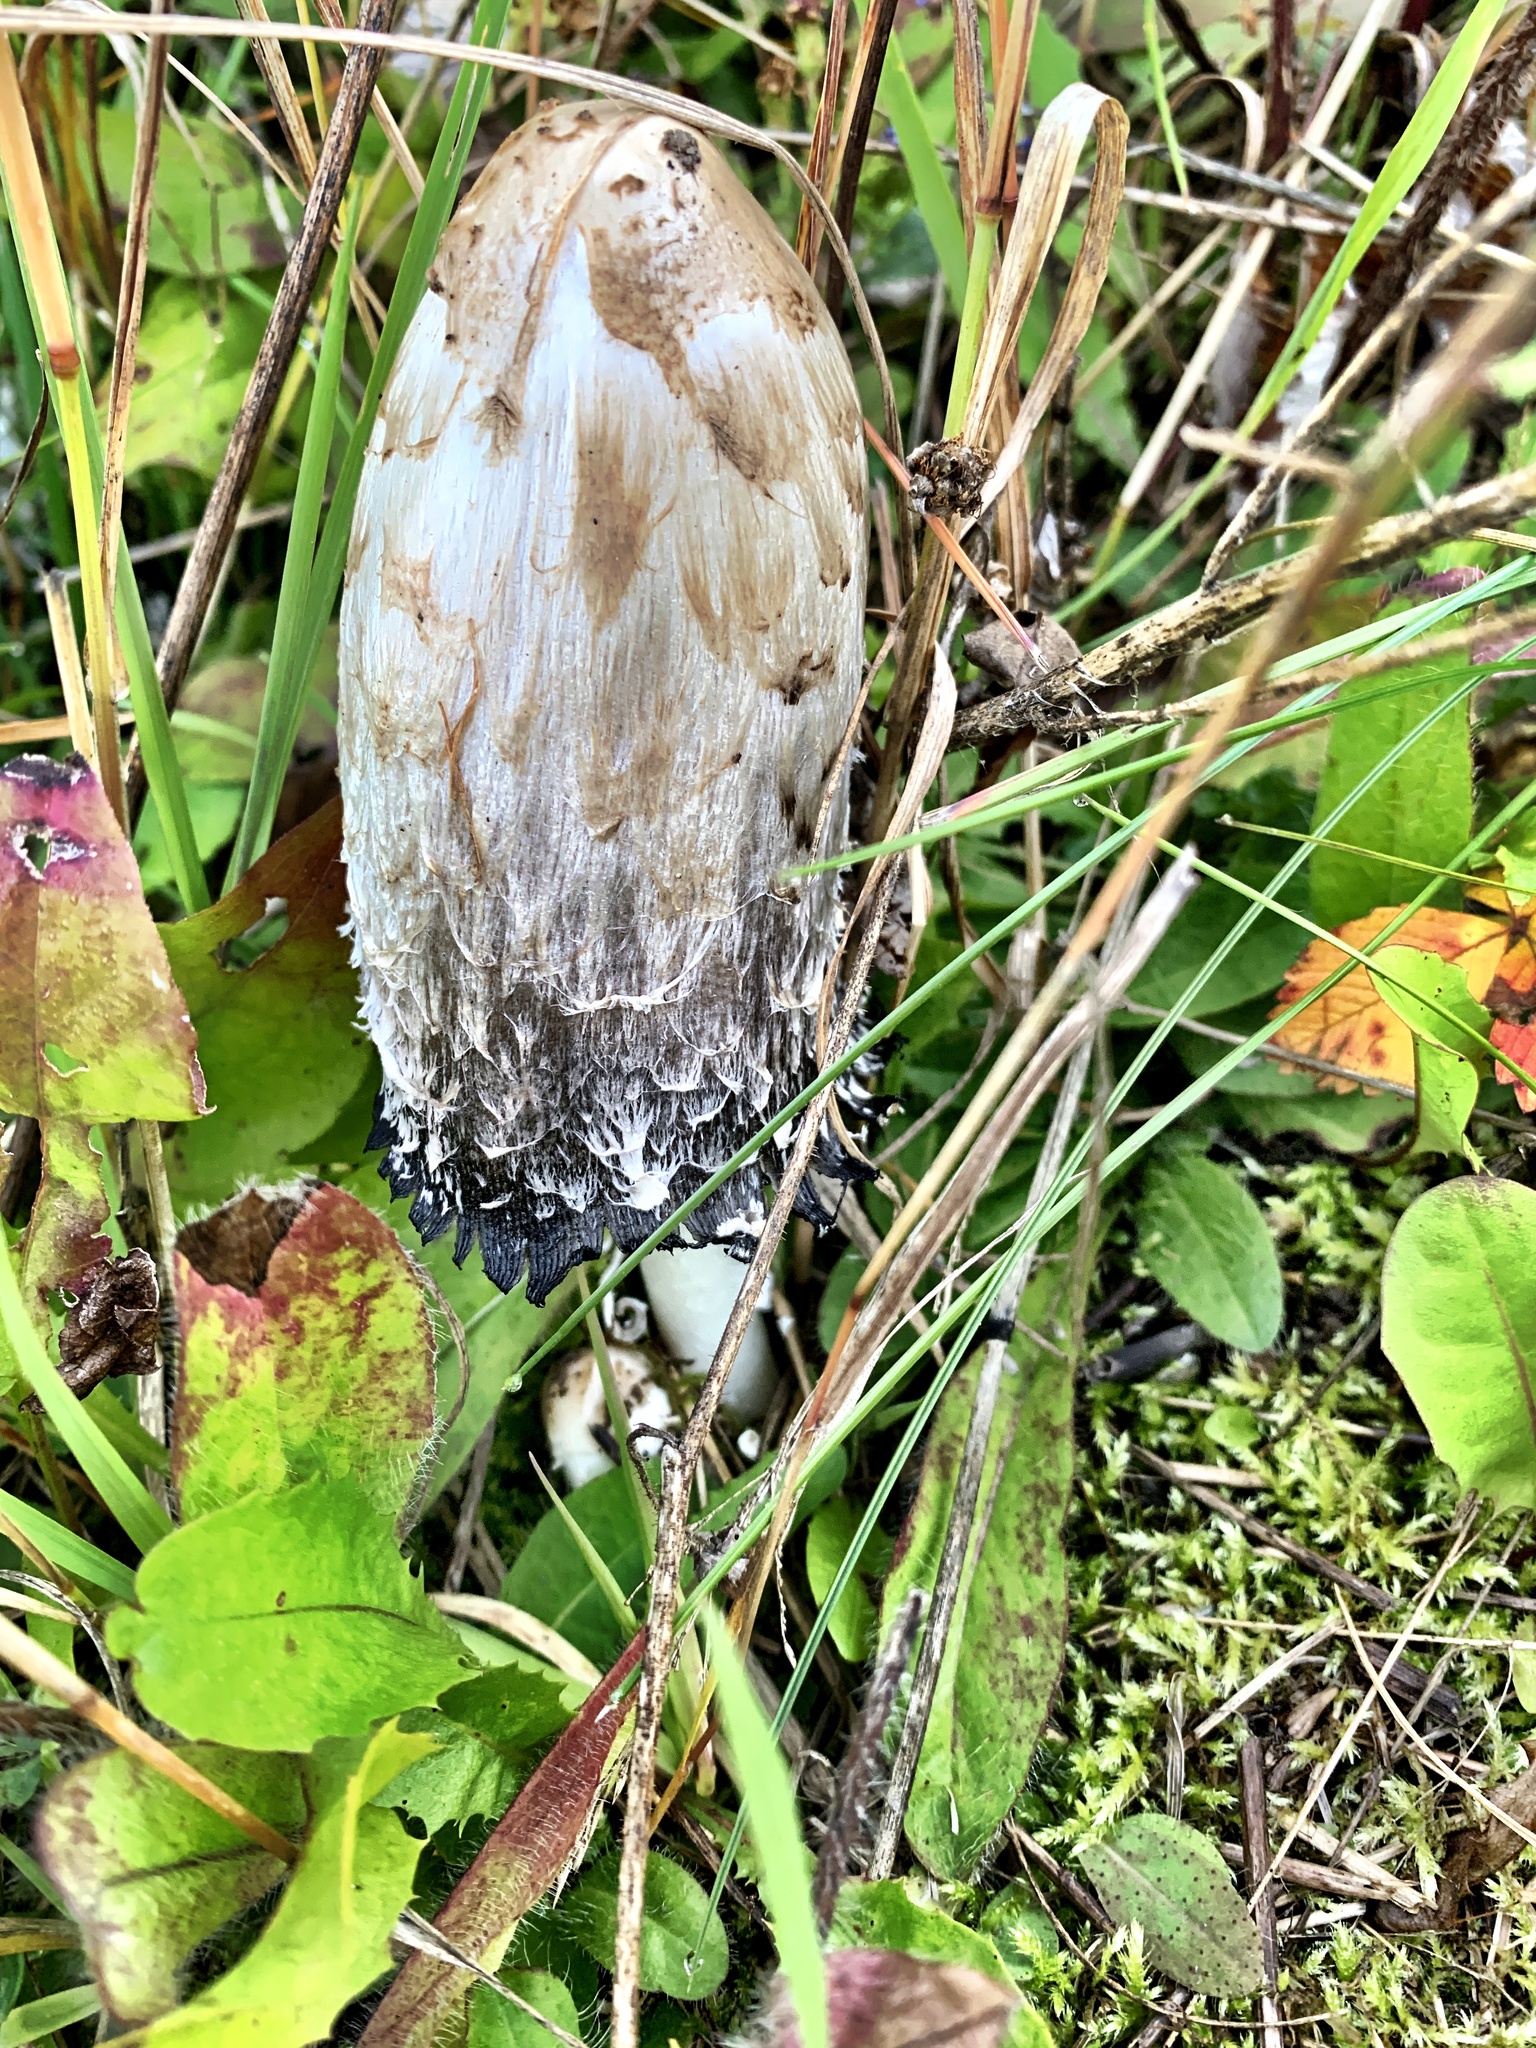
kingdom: Fungi
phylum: Basidiomycota
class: Agaricomycetes
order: Agaricales
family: Agaricaceae
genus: Coprinus
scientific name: Coprinus comatus
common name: Lawyer's wig
